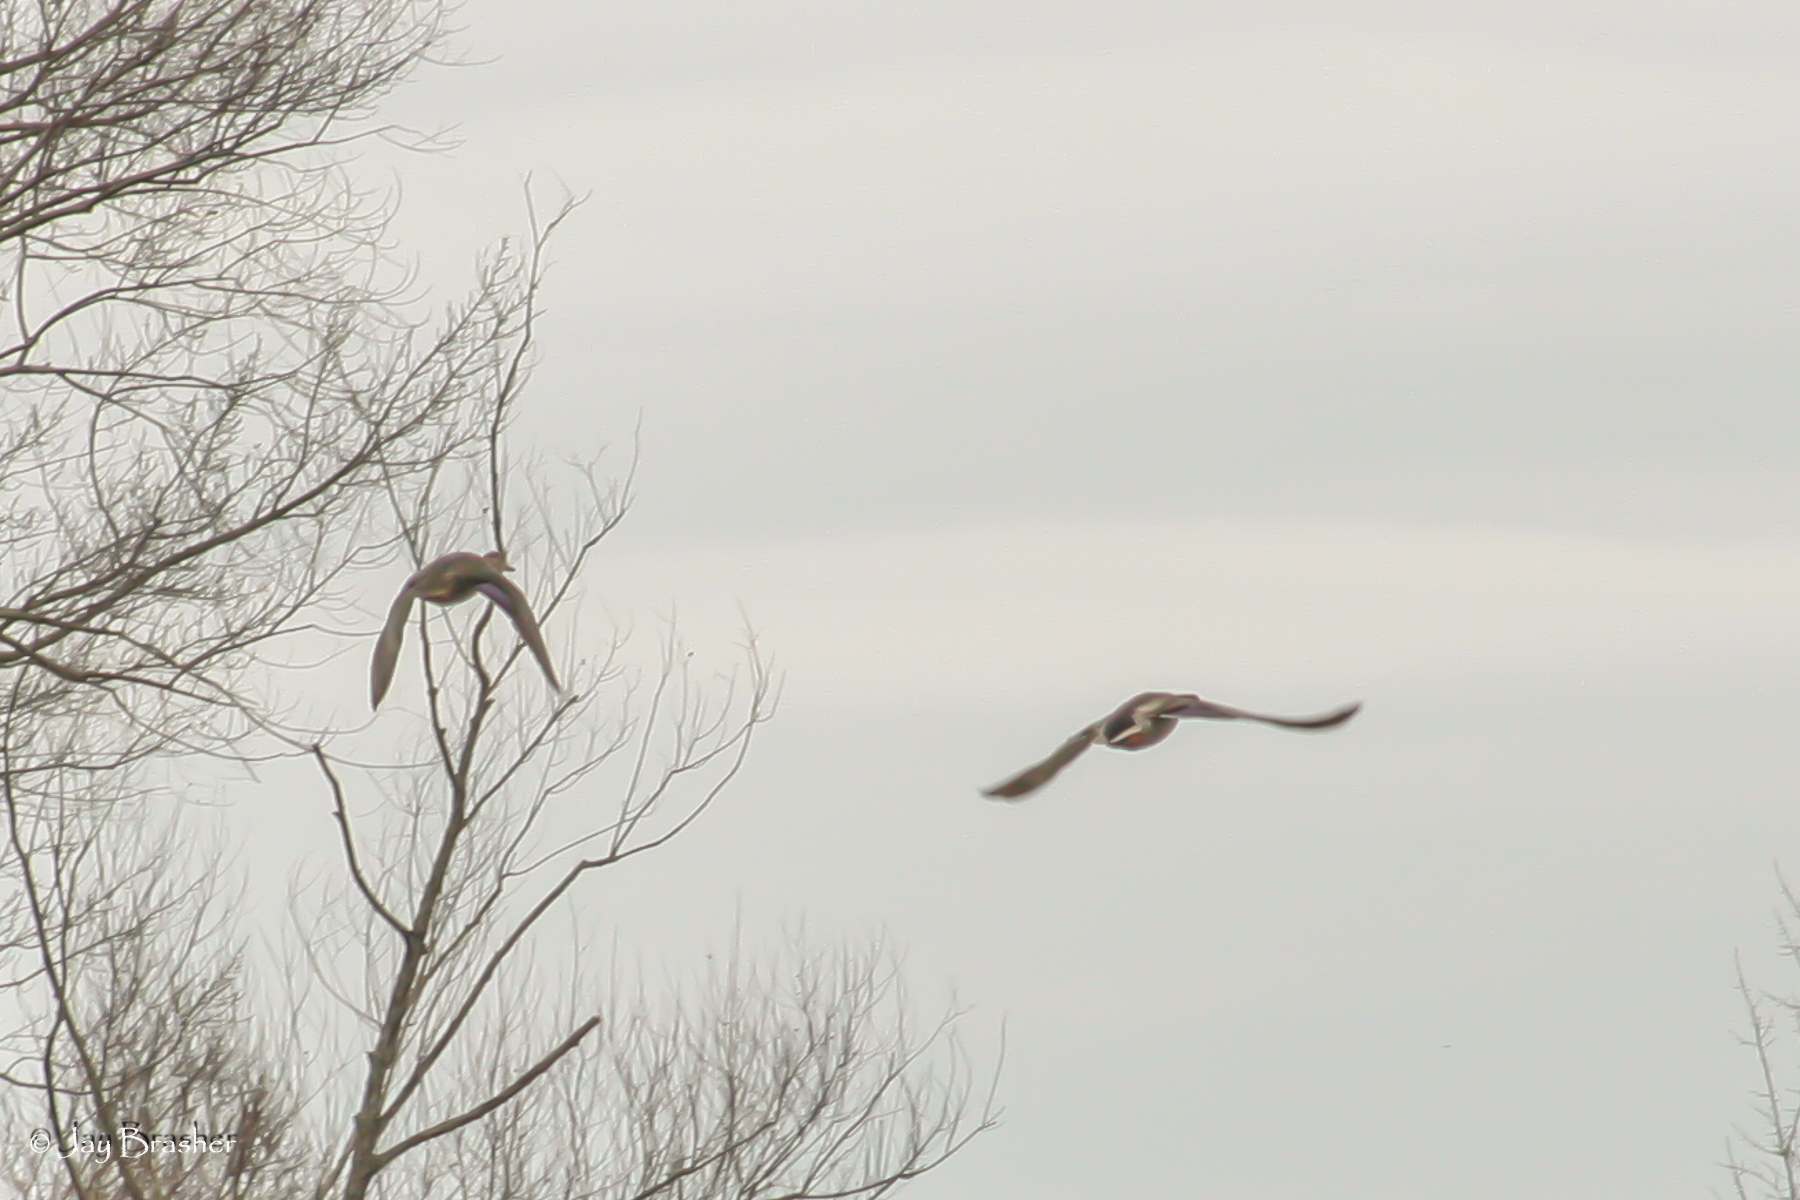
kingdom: Animalia
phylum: Chordata
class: Aves
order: Anseriformes
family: Anatidae
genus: Anas
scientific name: Anas platyrhynchos
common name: Mallard
